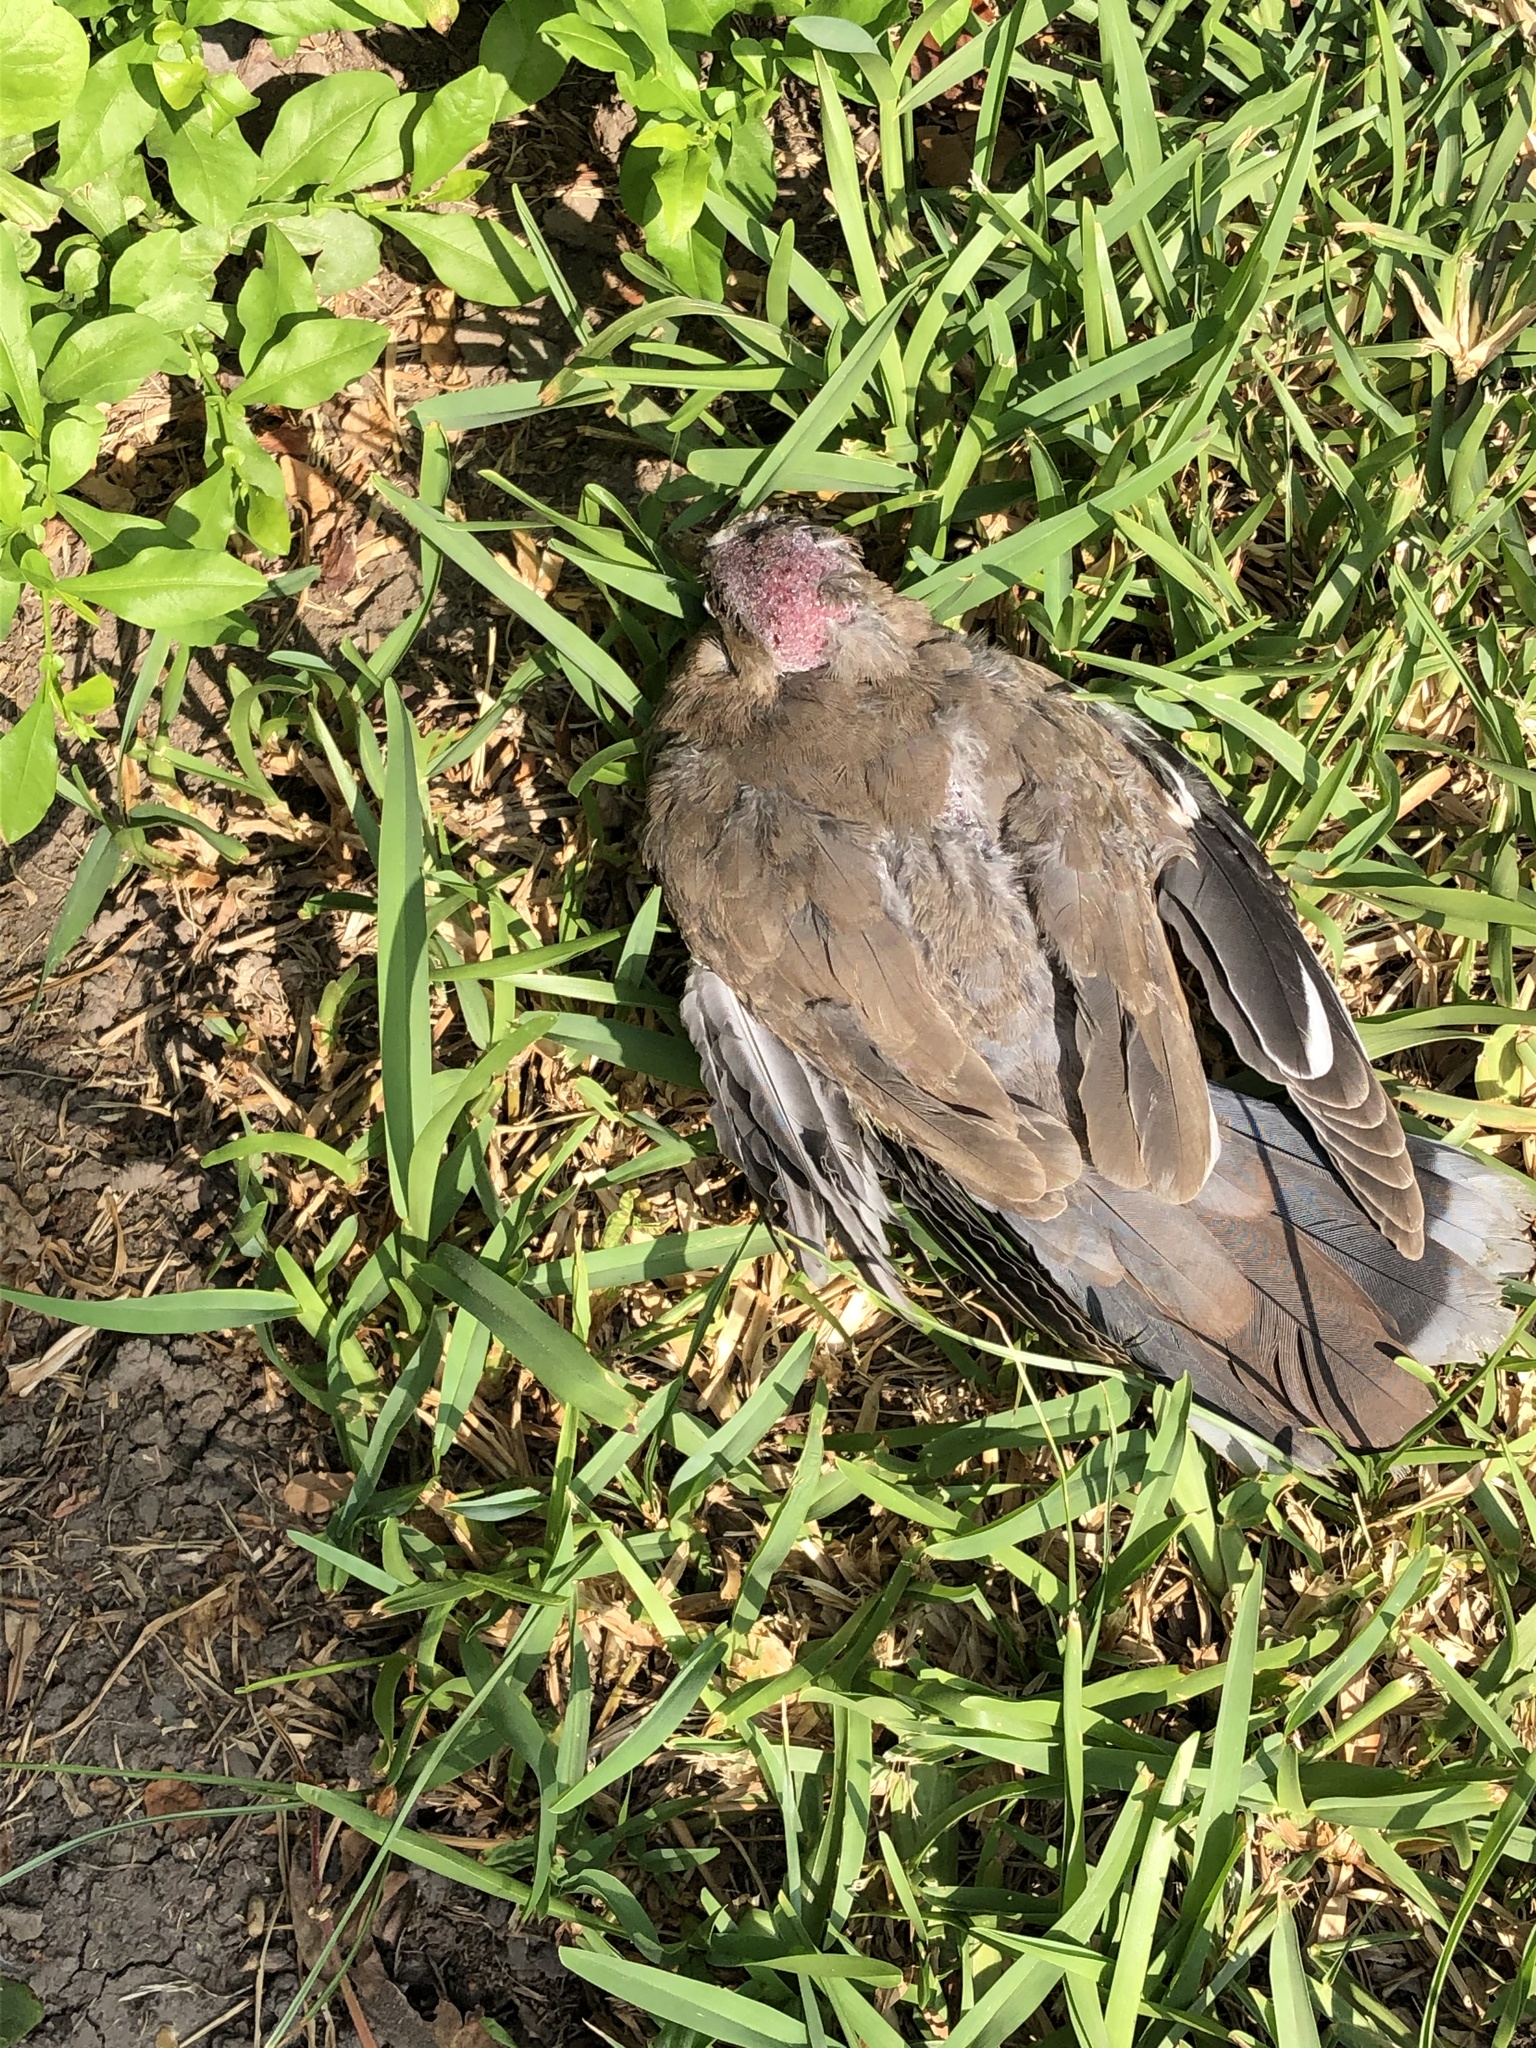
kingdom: Animalia
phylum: Chordata
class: Aves
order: Columbiformes
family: Columbidae
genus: Zenaida
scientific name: Zenaida meloda
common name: West peruvian dove
